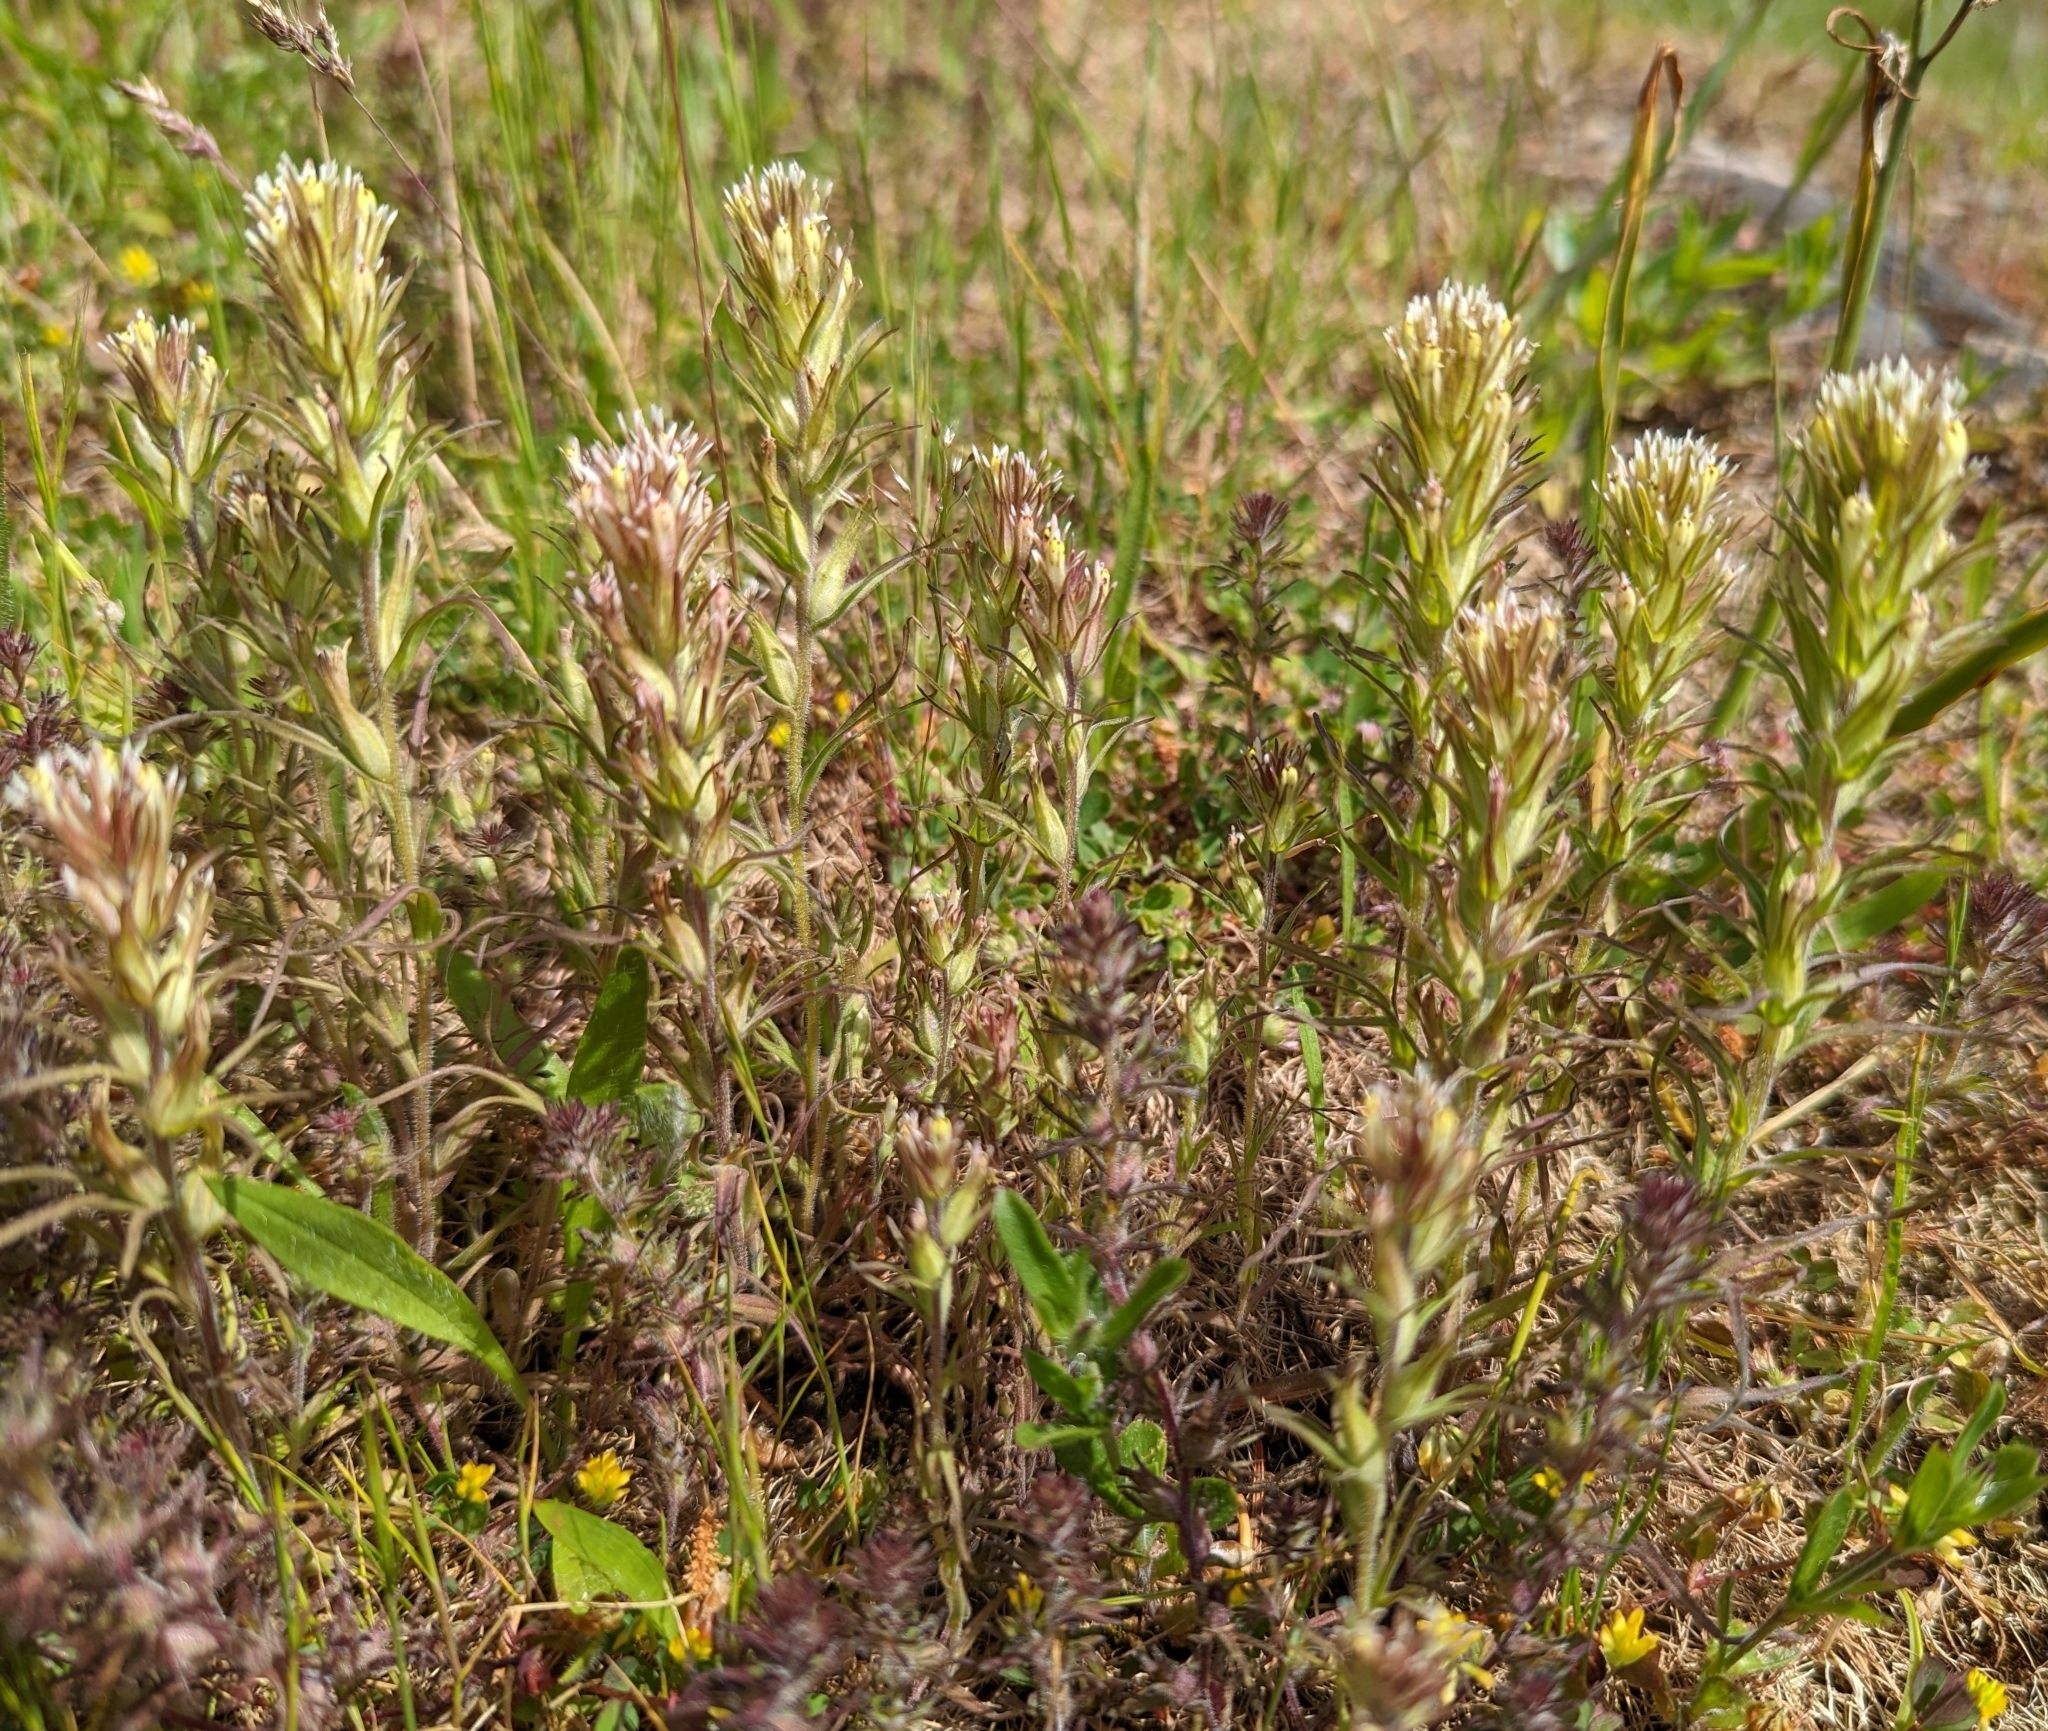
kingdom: Plantae
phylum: Tracheophyta
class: Magnoliopsida
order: Lamiales
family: Orobanchaceae
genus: Castilleja
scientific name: Castilleja attenuata
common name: Valley tassels
